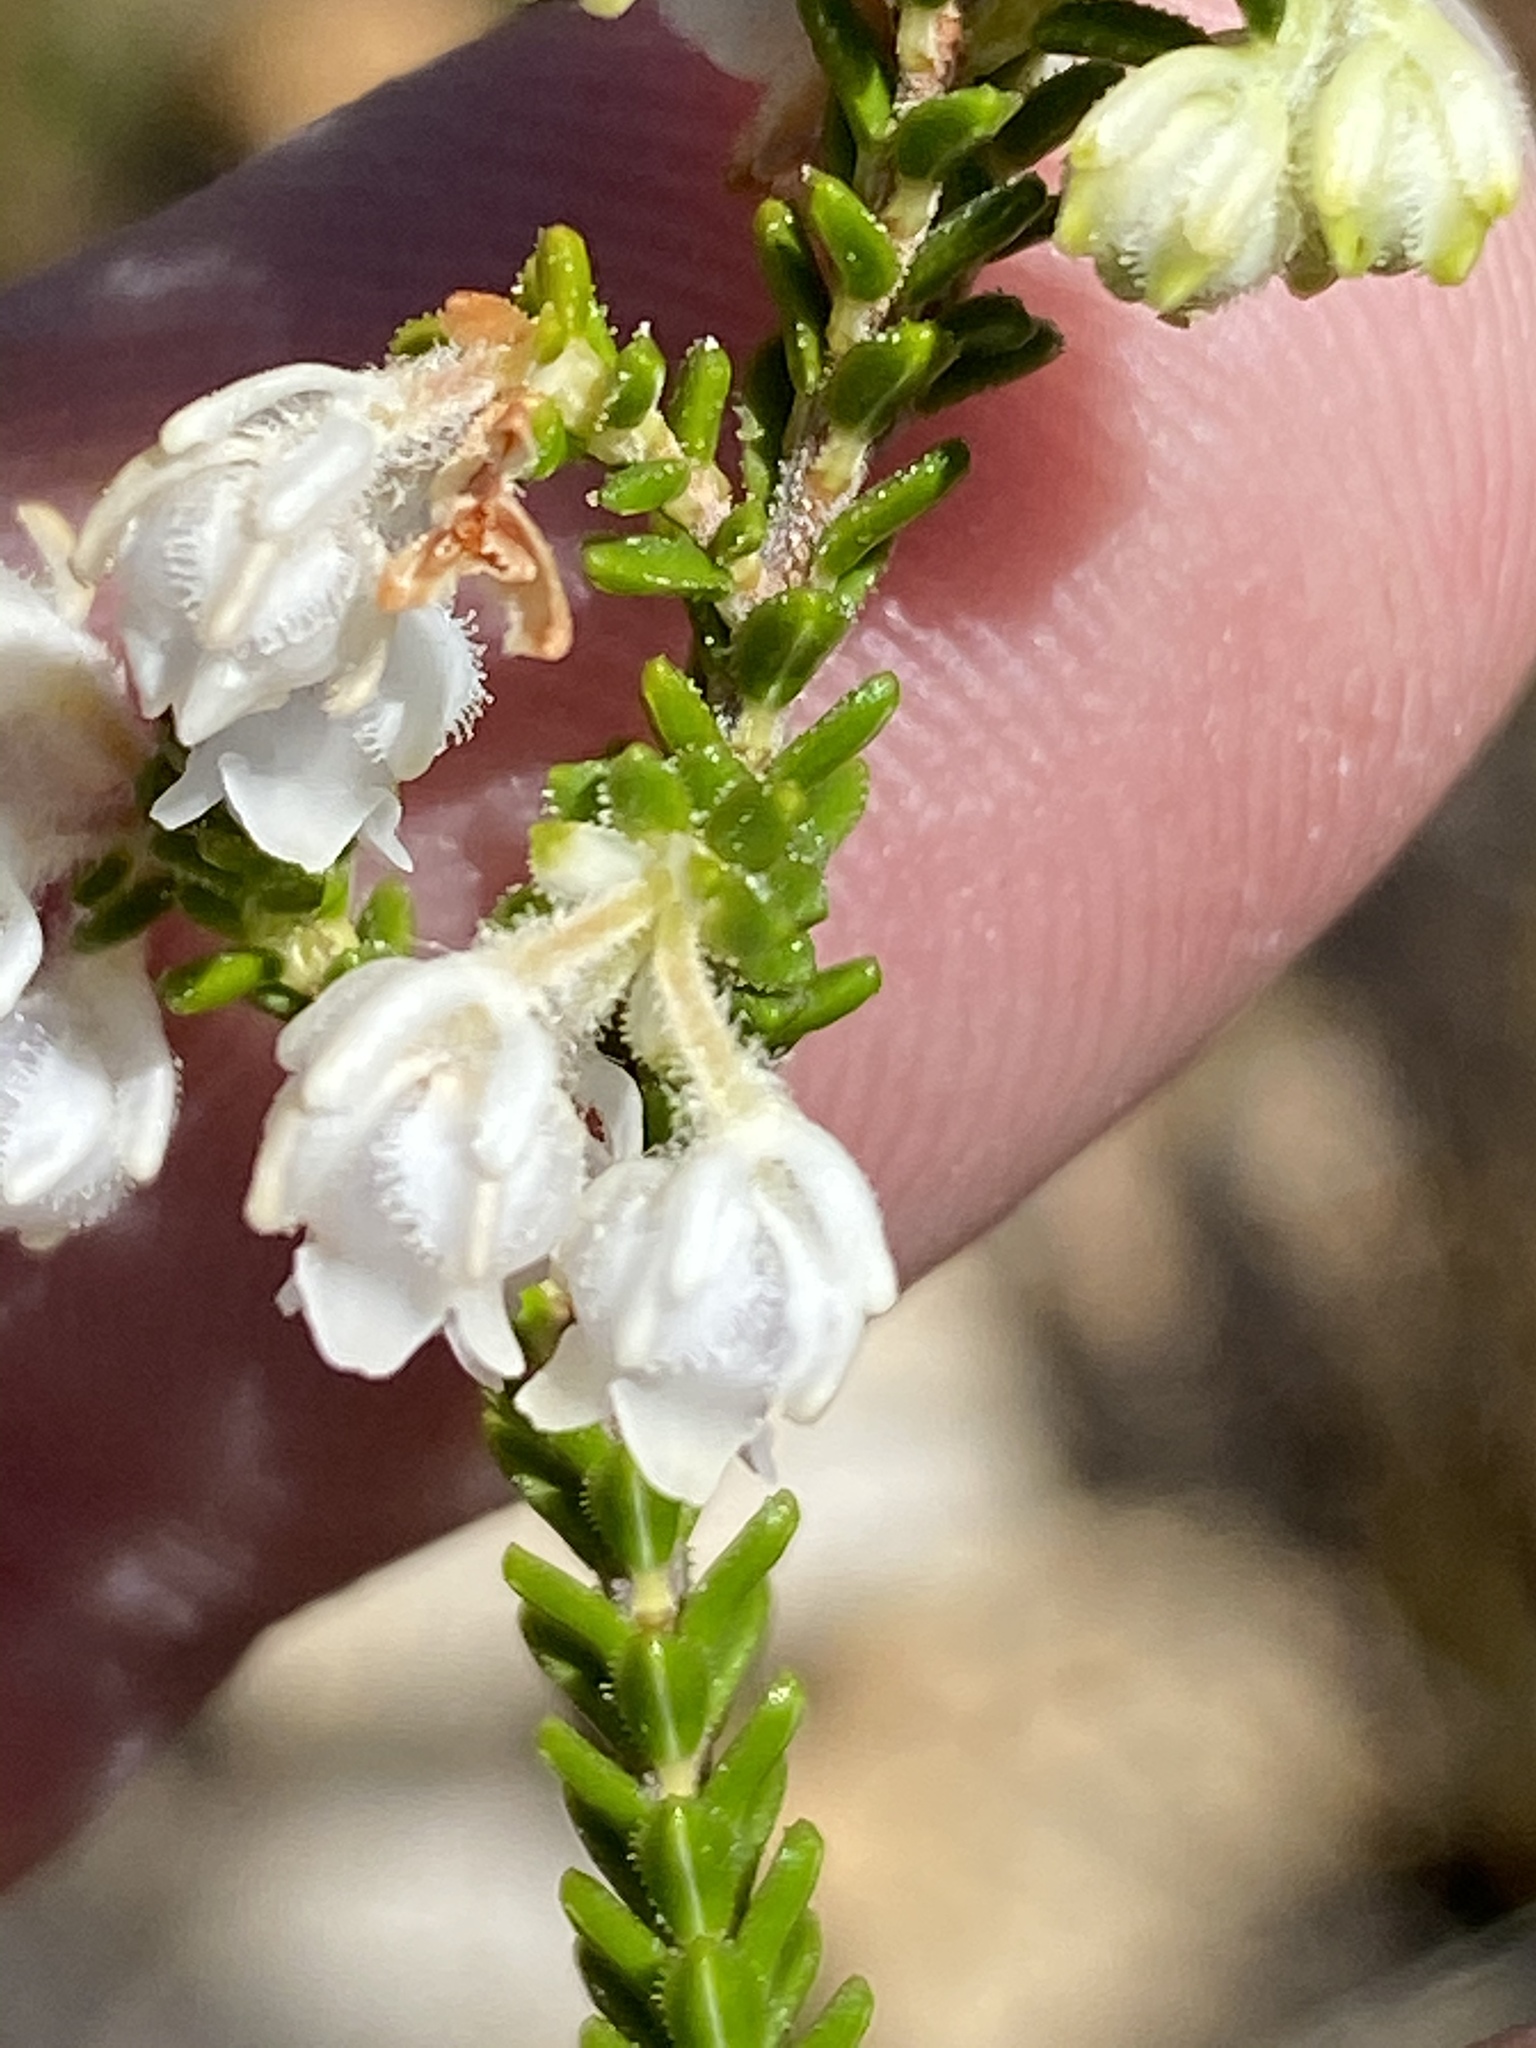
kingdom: Plantae
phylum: Tracheophyta
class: Magnoliopsida
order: Ericales
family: Ericaceae
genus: Erica
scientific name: Erica fimbriata
